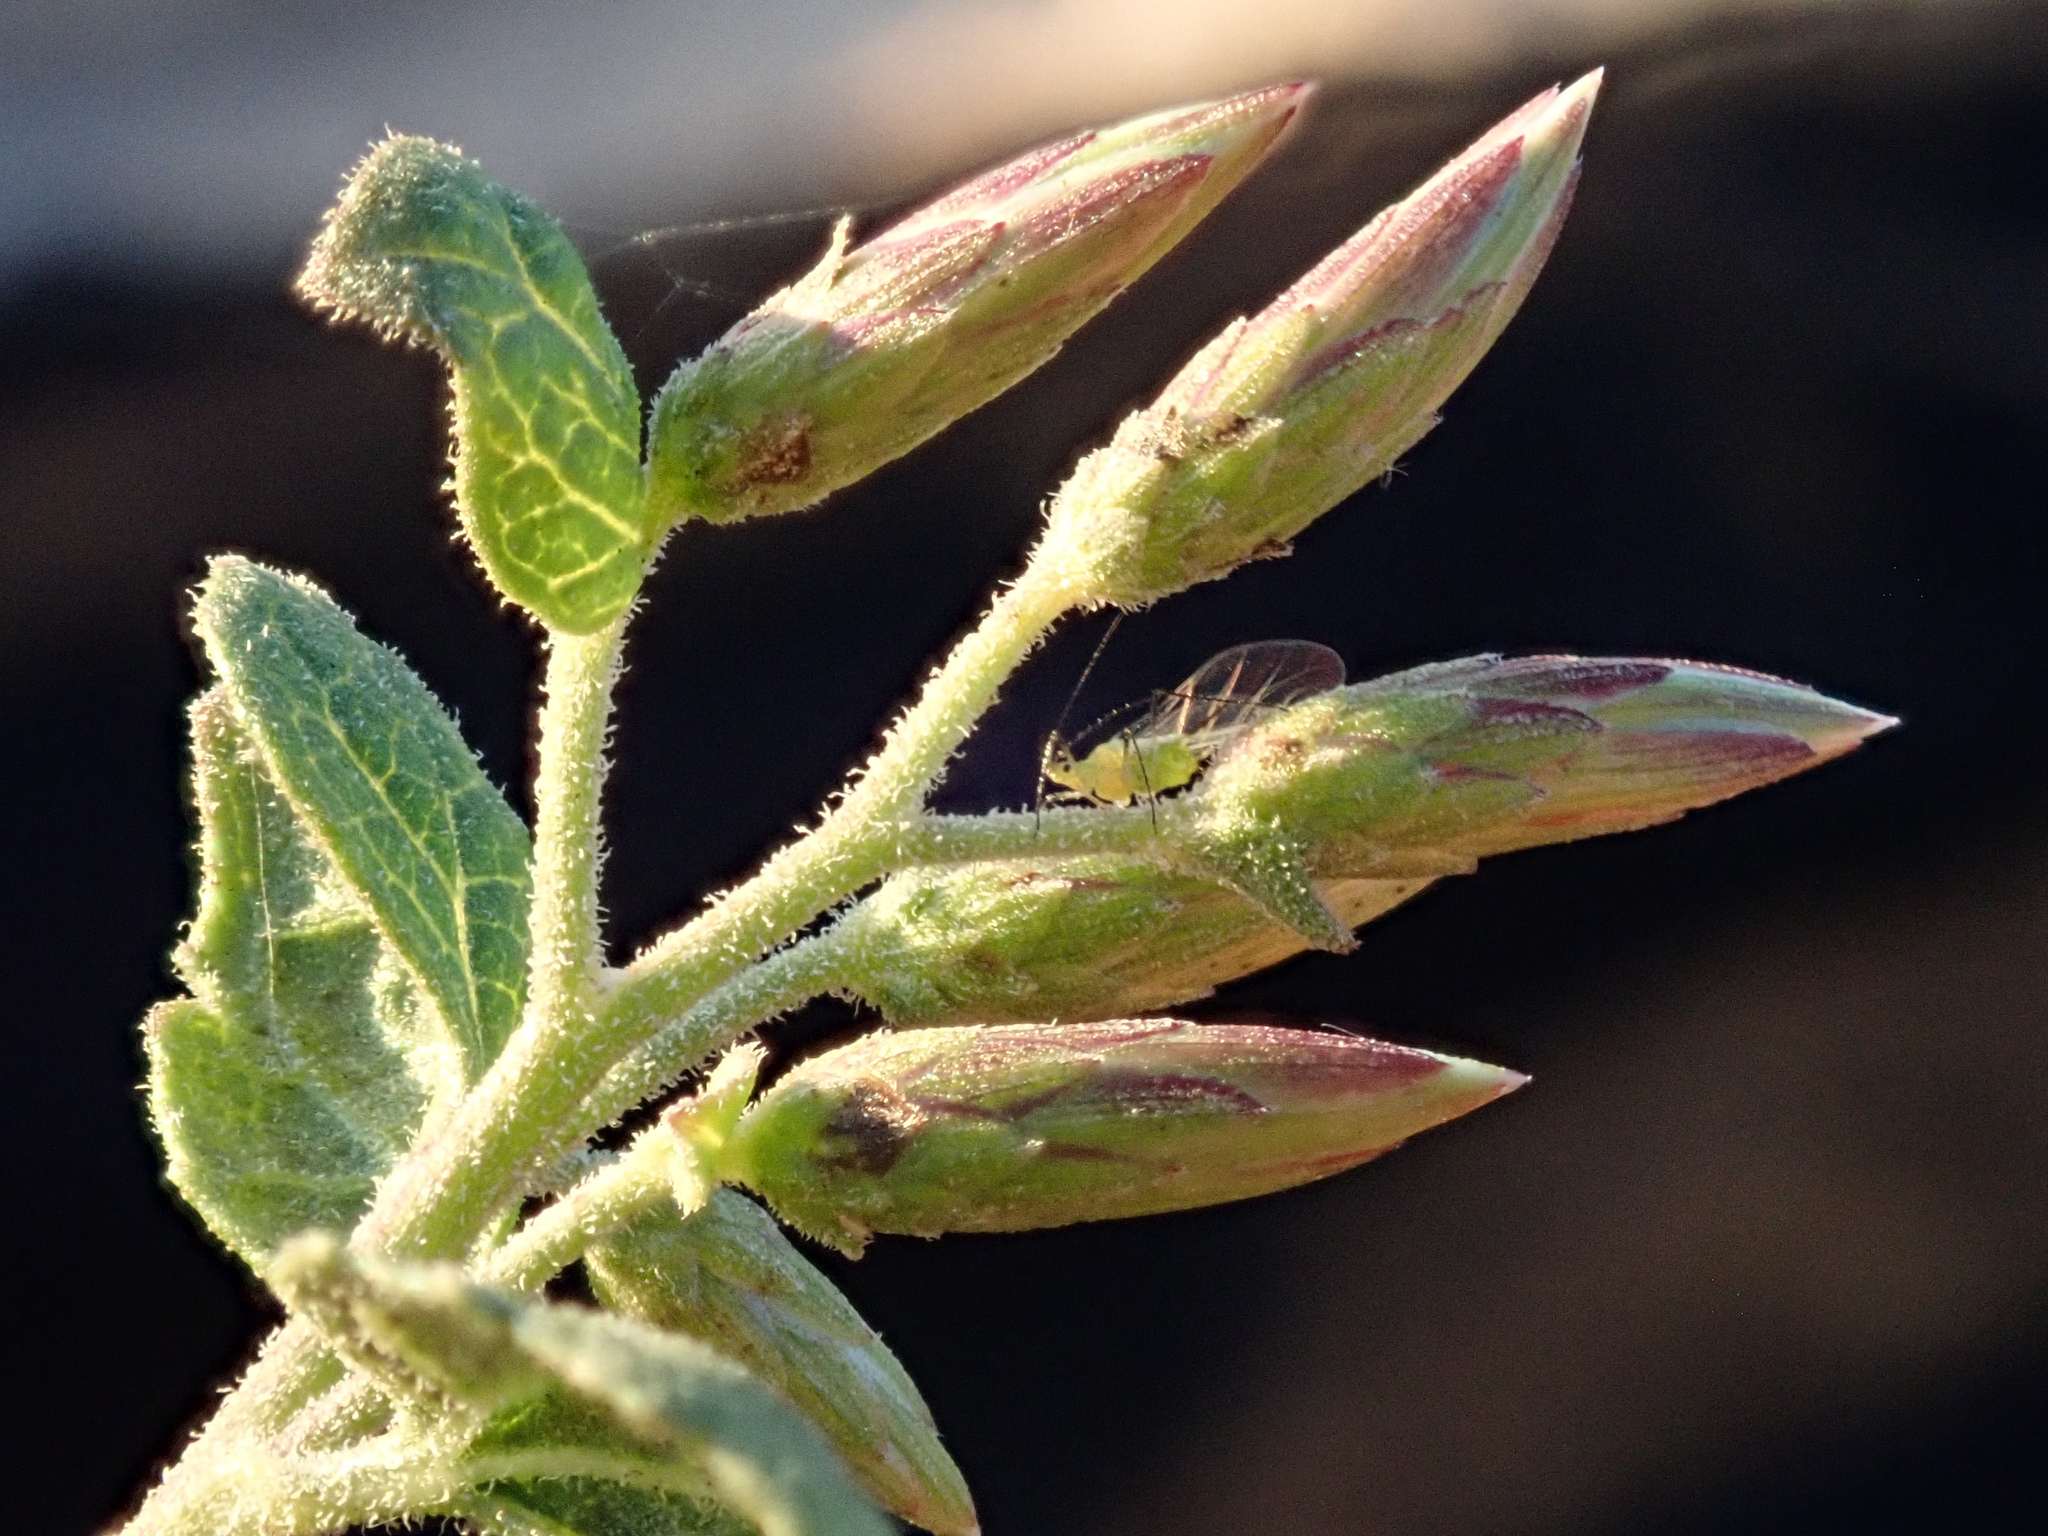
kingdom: Plantae
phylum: Tracheophyta
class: Magnoliopsida
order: Asterales
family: Asteraceae
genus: Brickellia
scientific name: Brickellia californica
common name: California brickellbush
